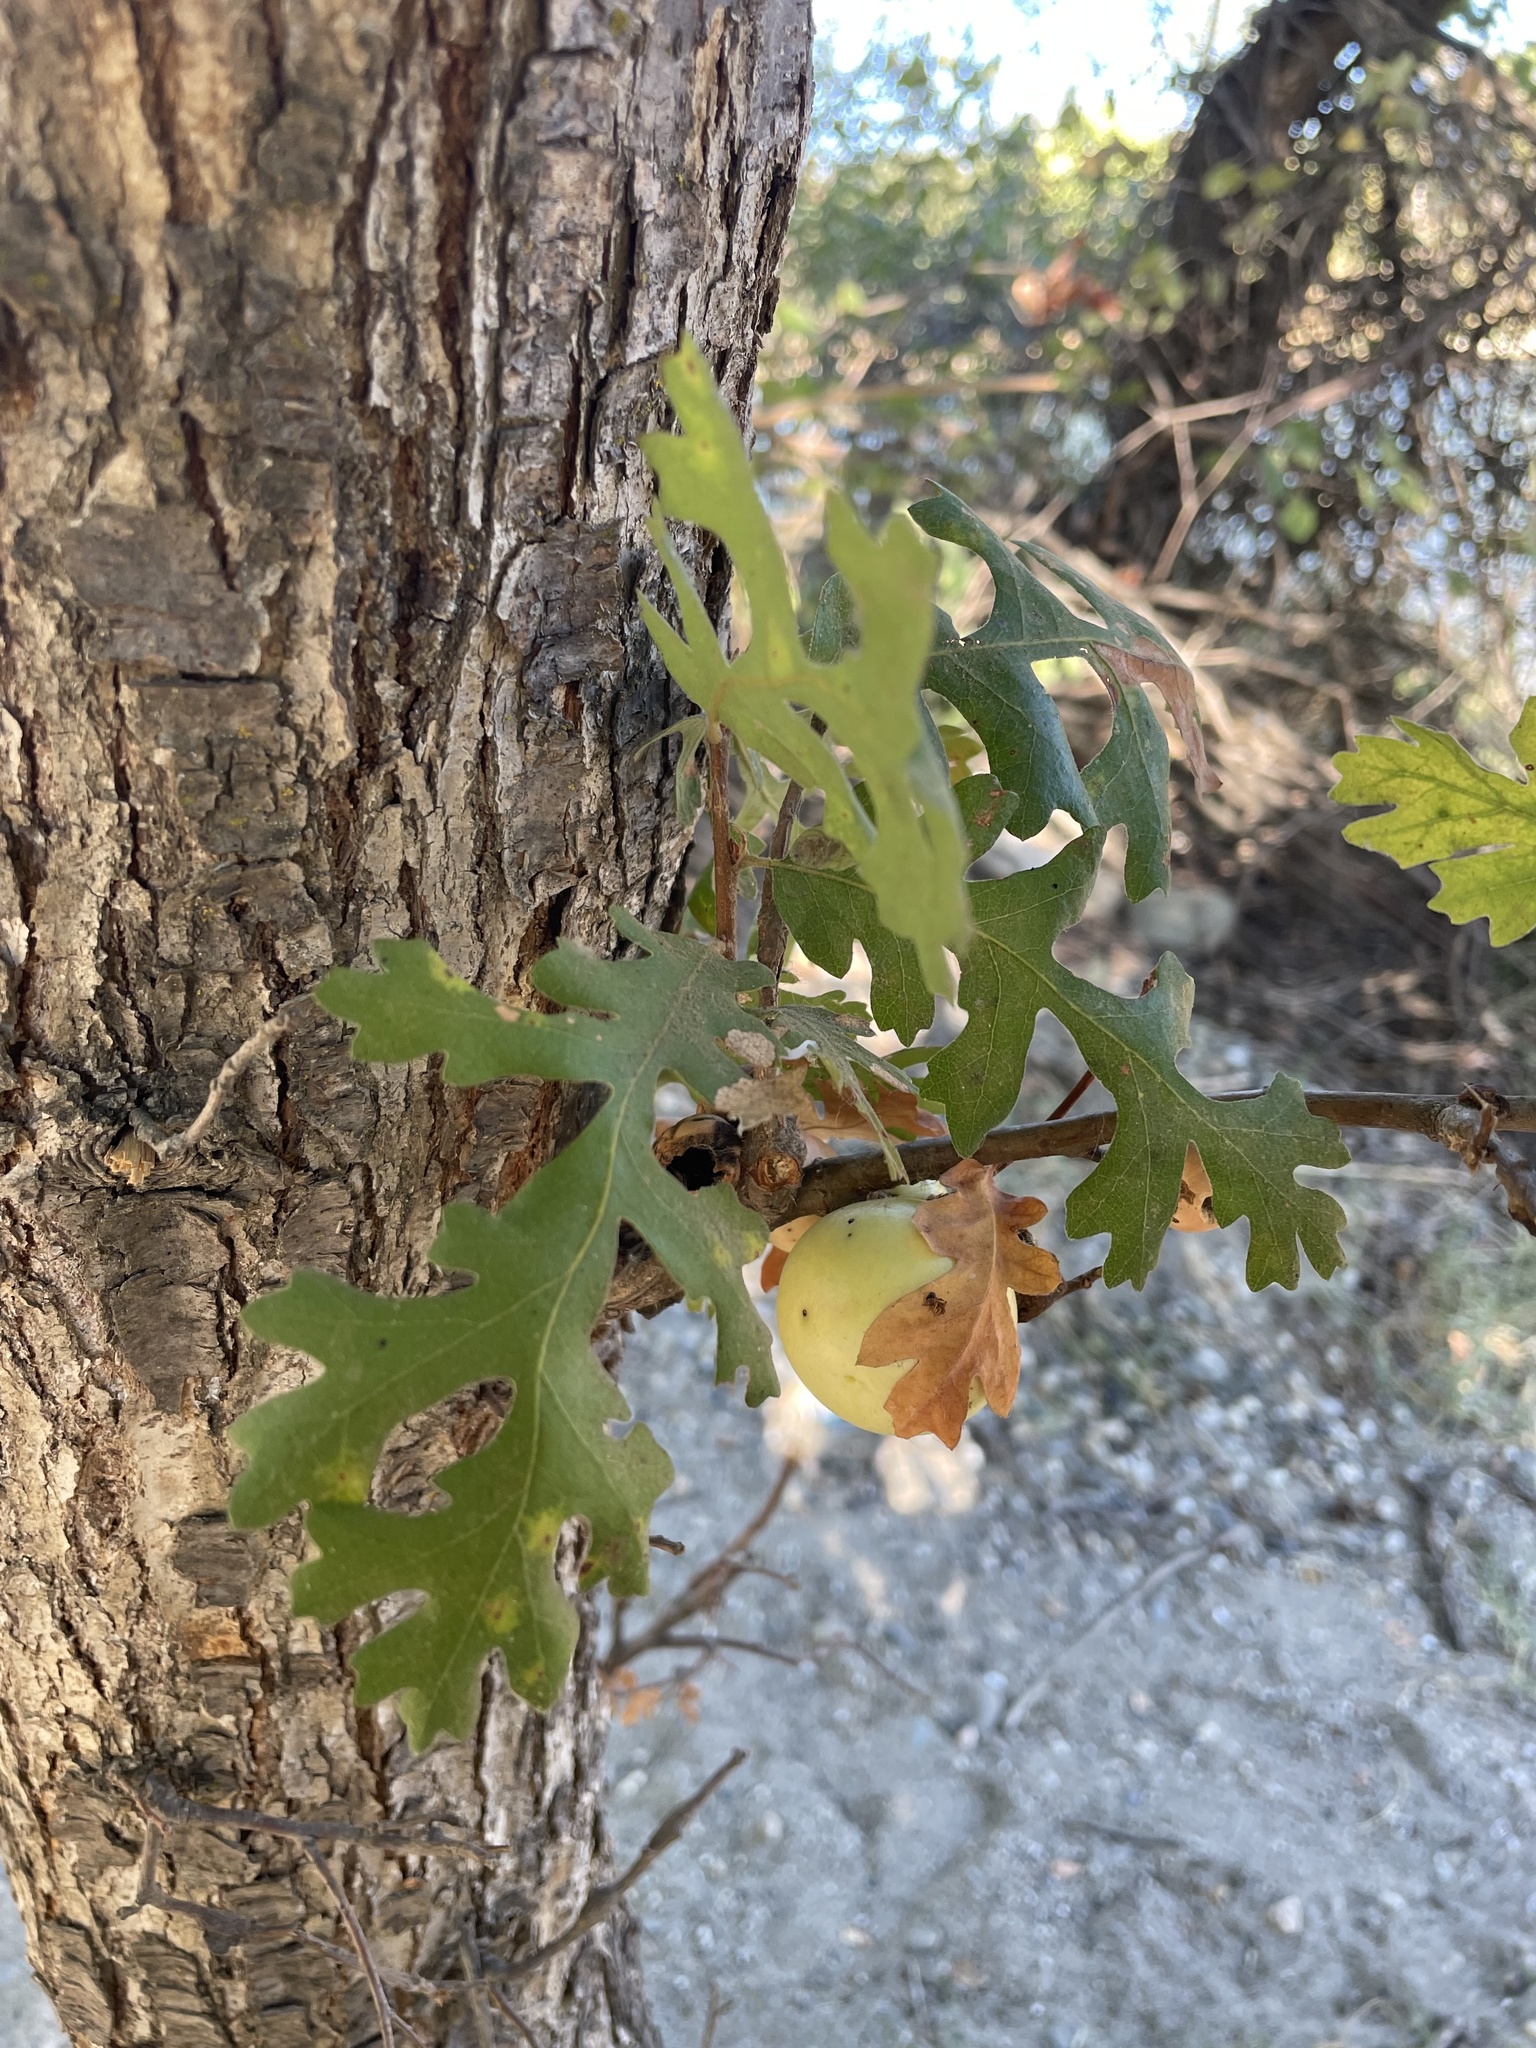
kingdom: Plantae
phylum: Tracheophyta
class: Magnoliopsida
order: Fagales
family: Fagaceae
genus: Quercus
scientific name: Quercus lobata
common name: Valley oak
